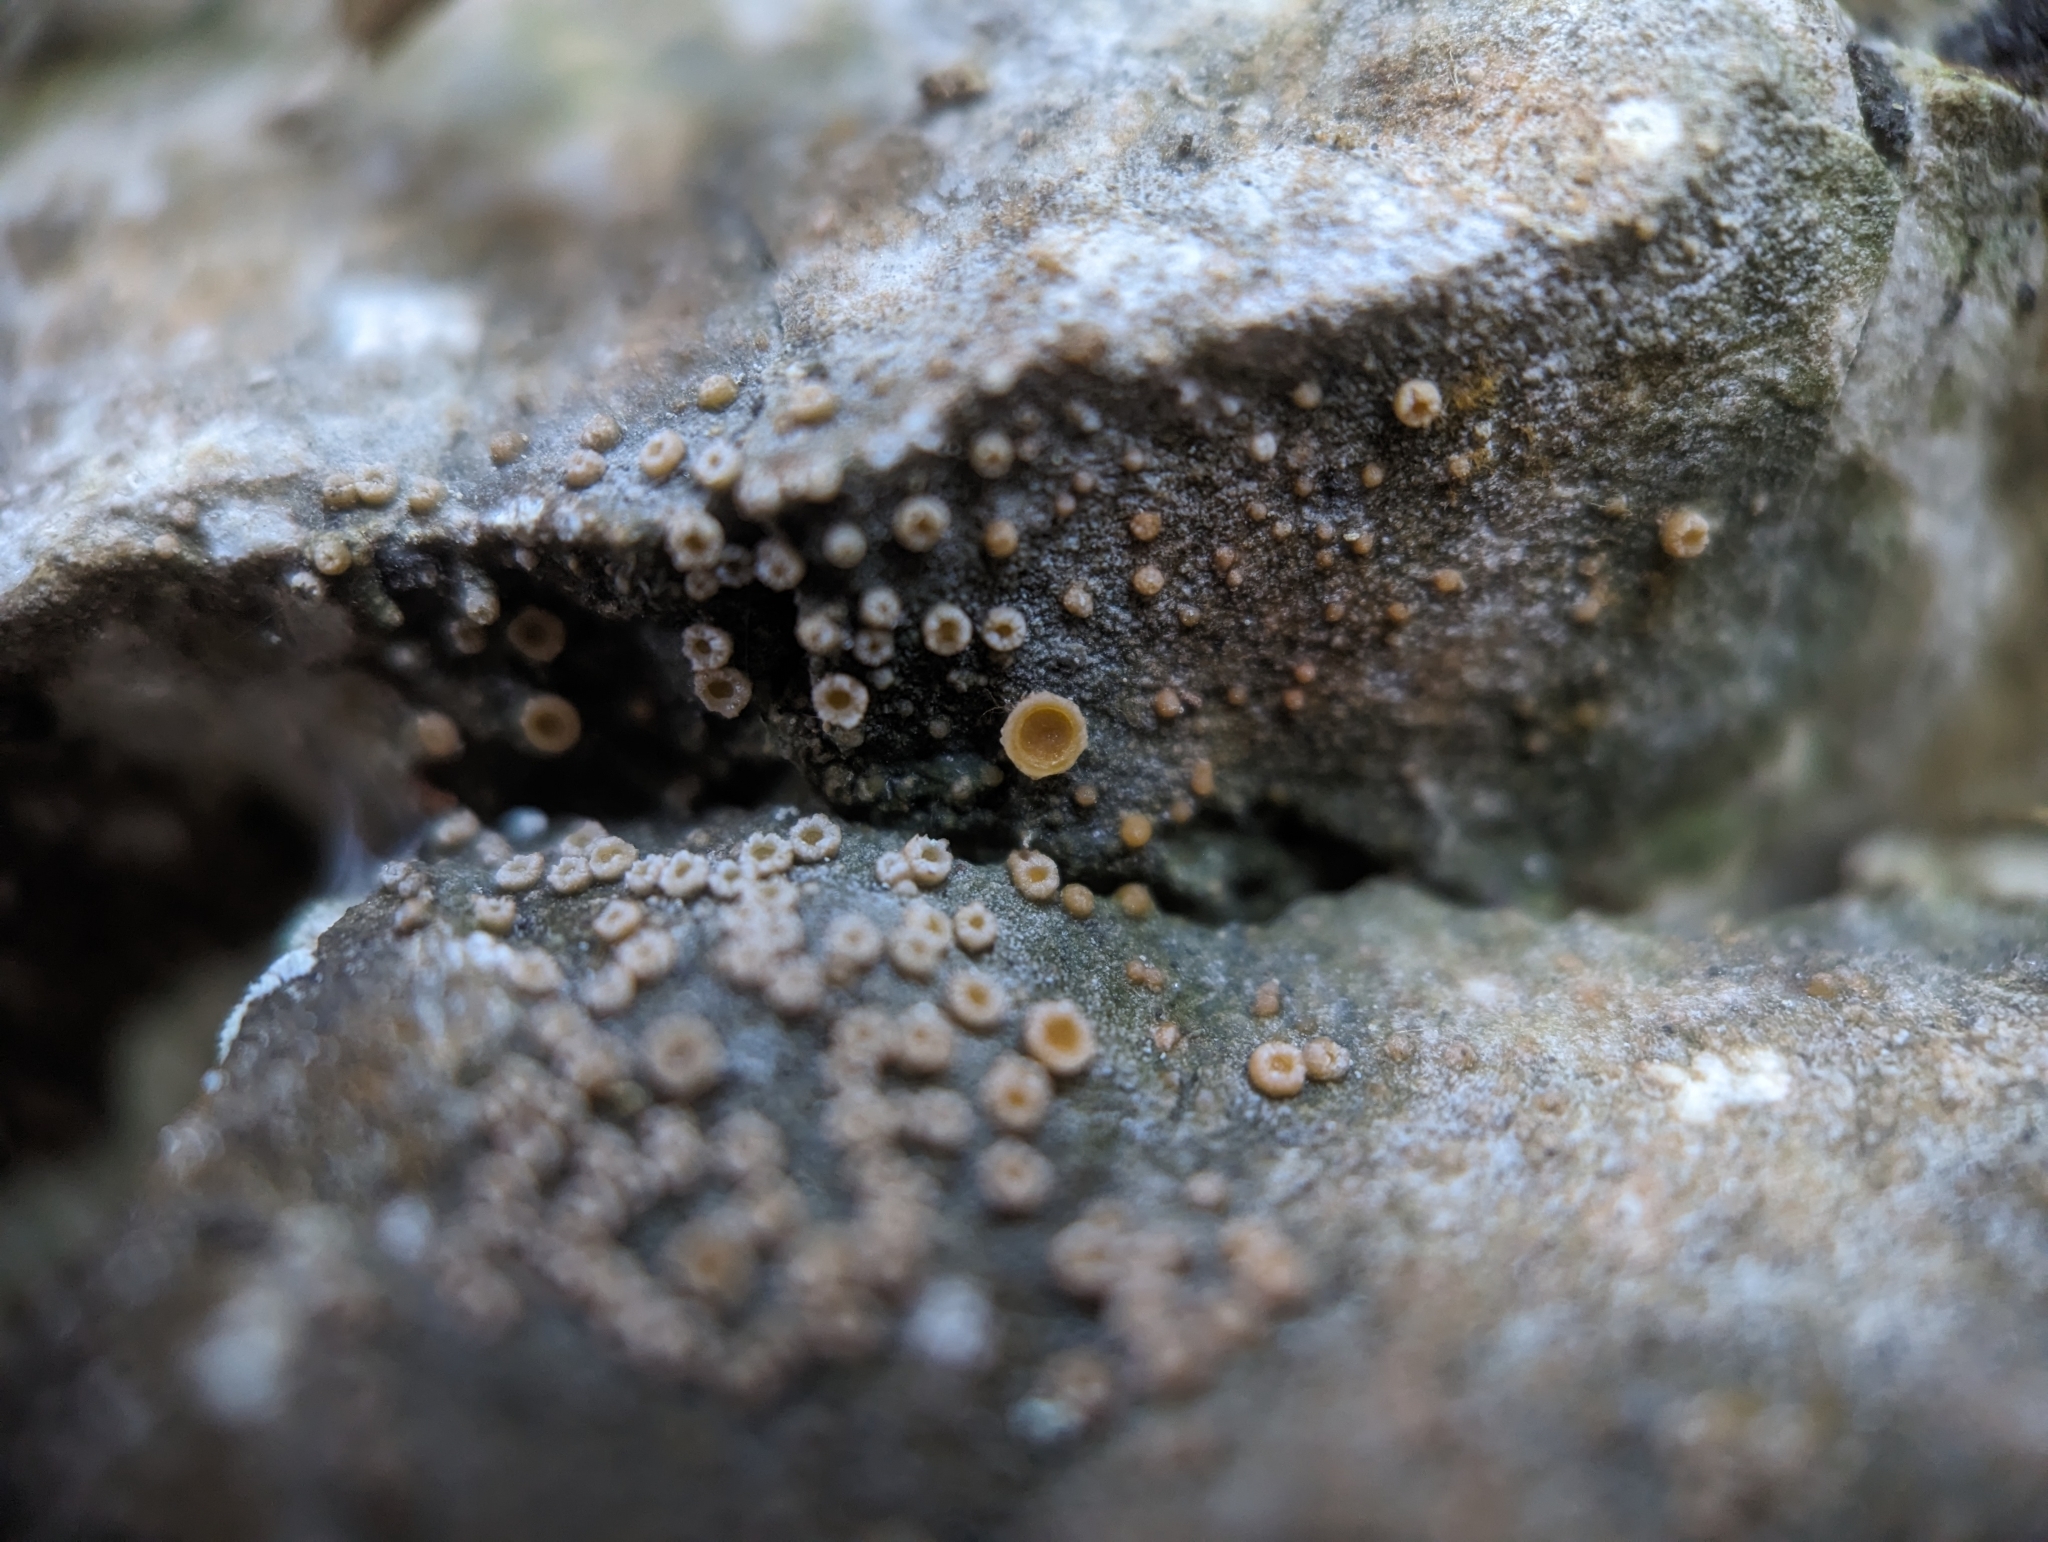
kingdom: Fungi
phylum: Ascomycota
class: Lecanoromycetes
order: Gyalectales
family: Gyalectaceae
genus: Gyalecta
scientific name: Gyalecta jenensis
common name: Rock dimple lichen
